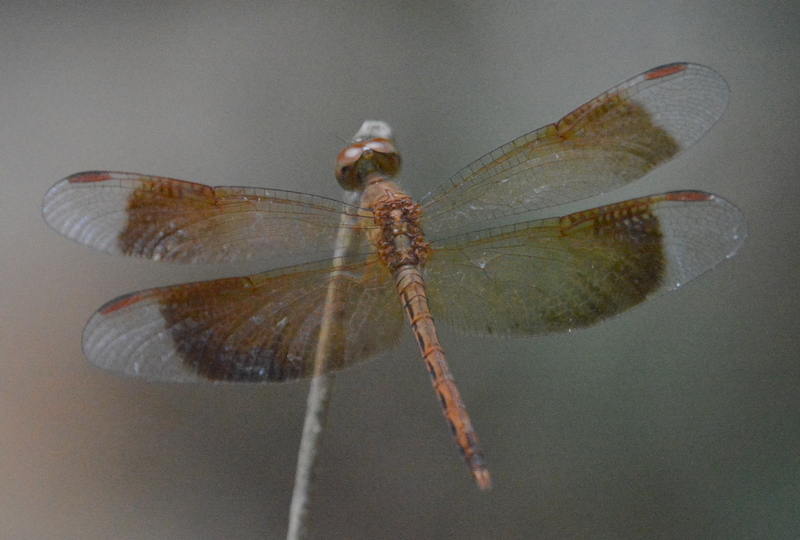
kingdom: Animalia
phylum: Arthropoda
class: Insecta
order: Odonata
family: Libellulidae
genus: Neurothemis
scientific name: Neurothemis fluctuans
